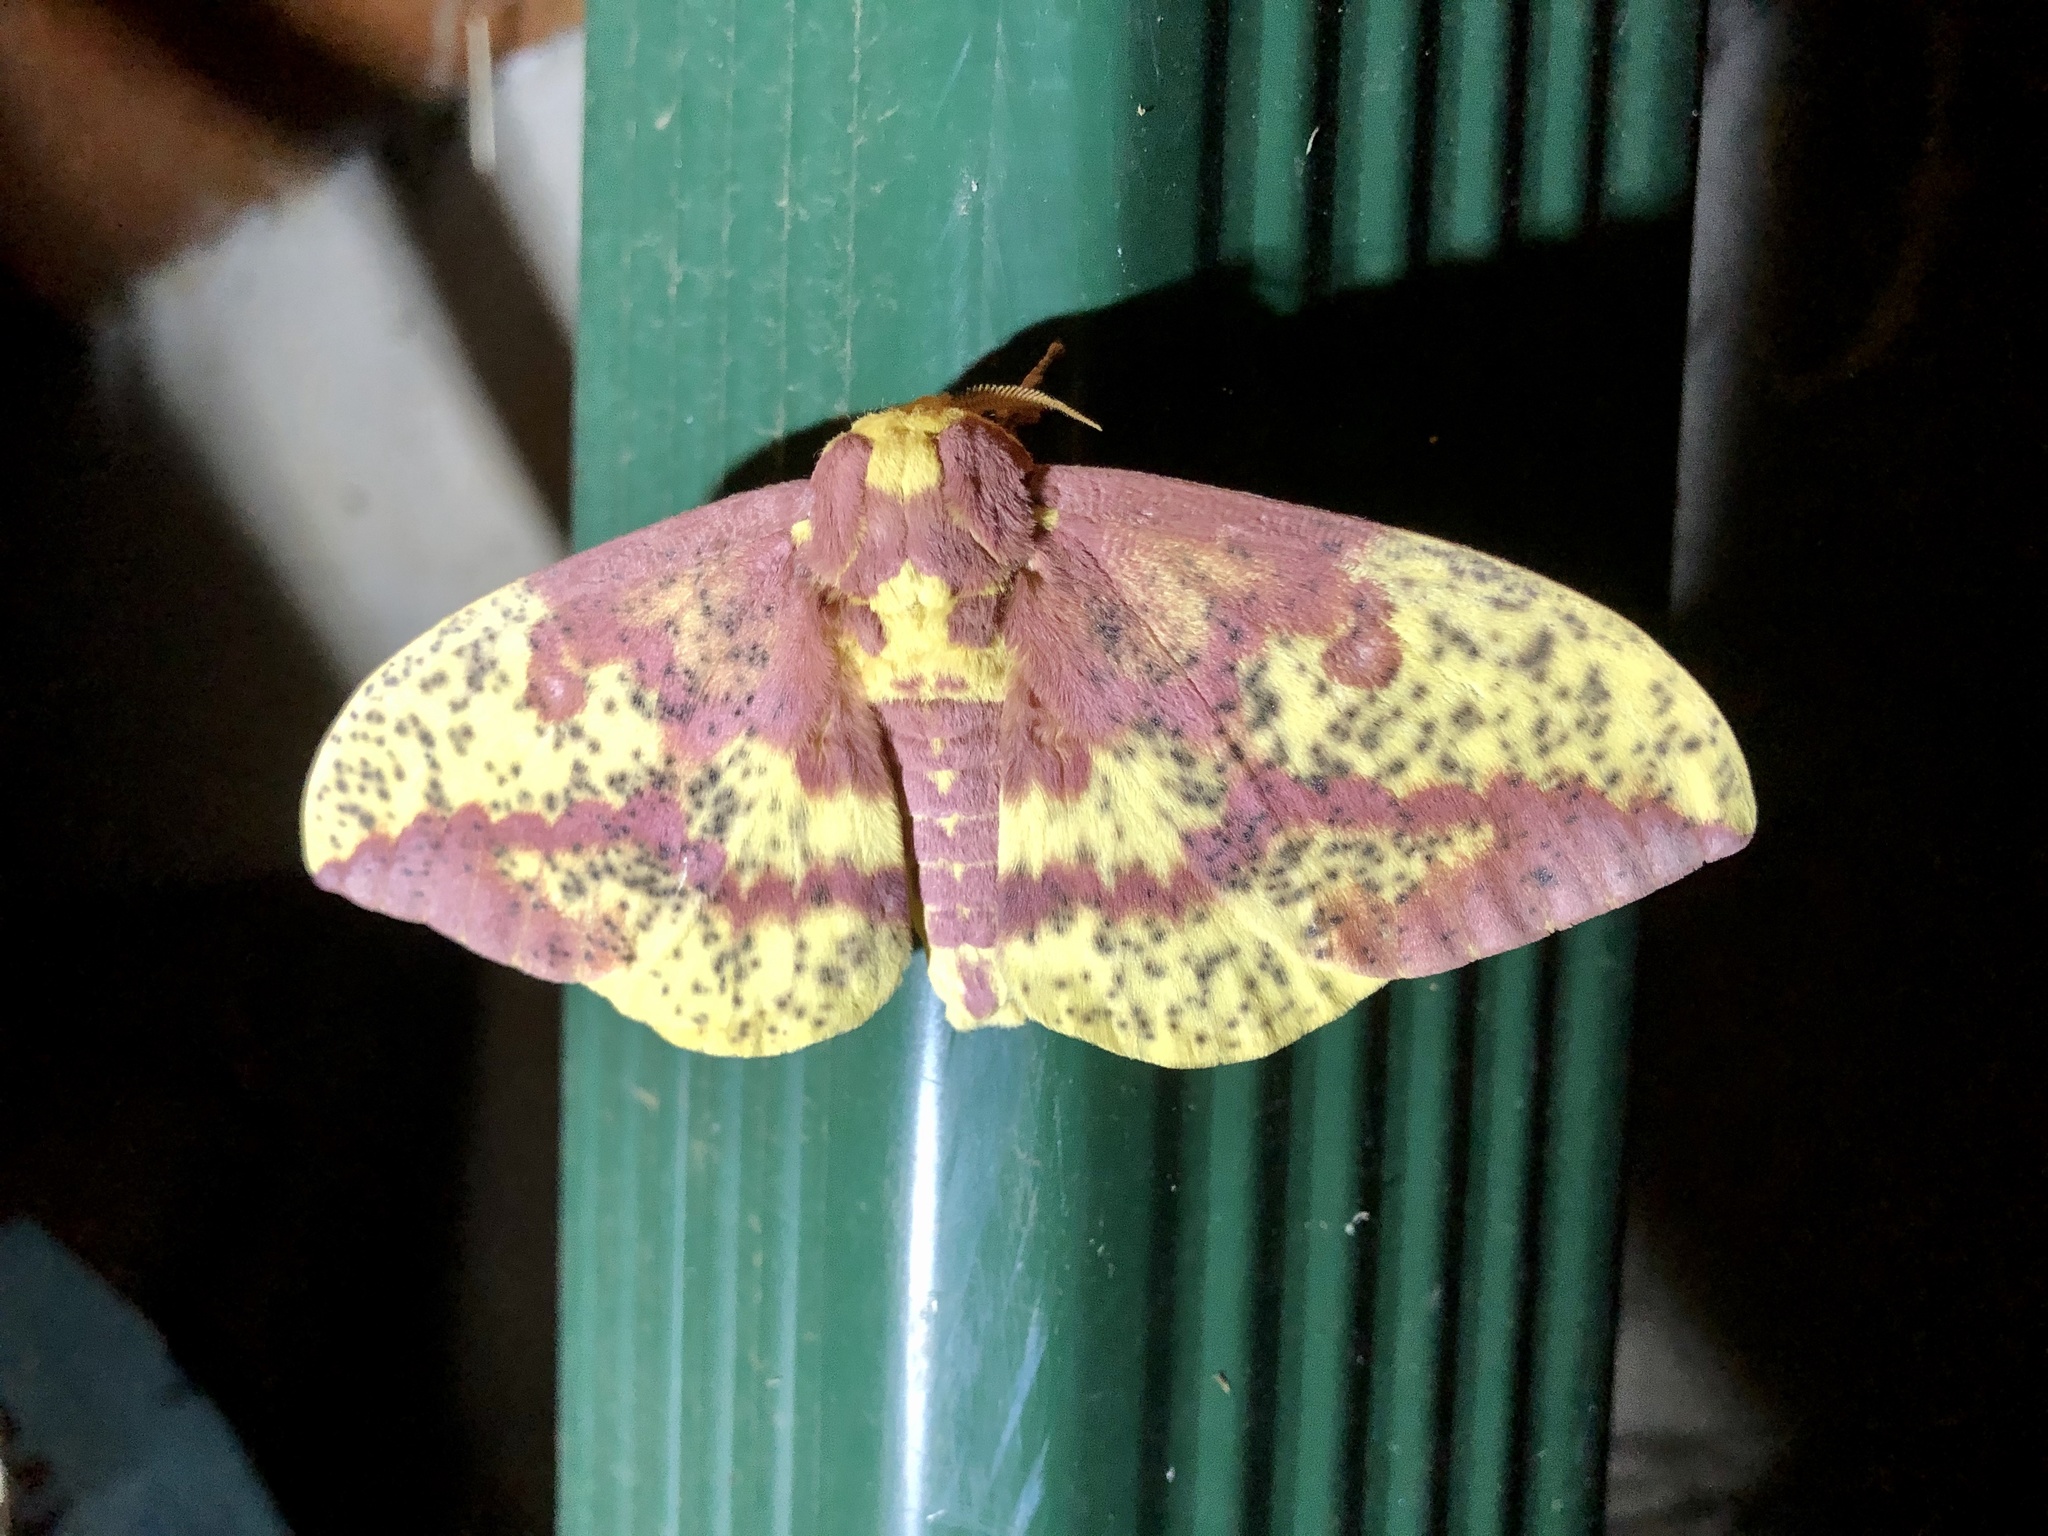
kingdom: Animalia
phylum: Arthropoda
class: Insecta
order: Lepidoptera
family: Saturniidae
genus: Eacles
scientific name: Eacles
